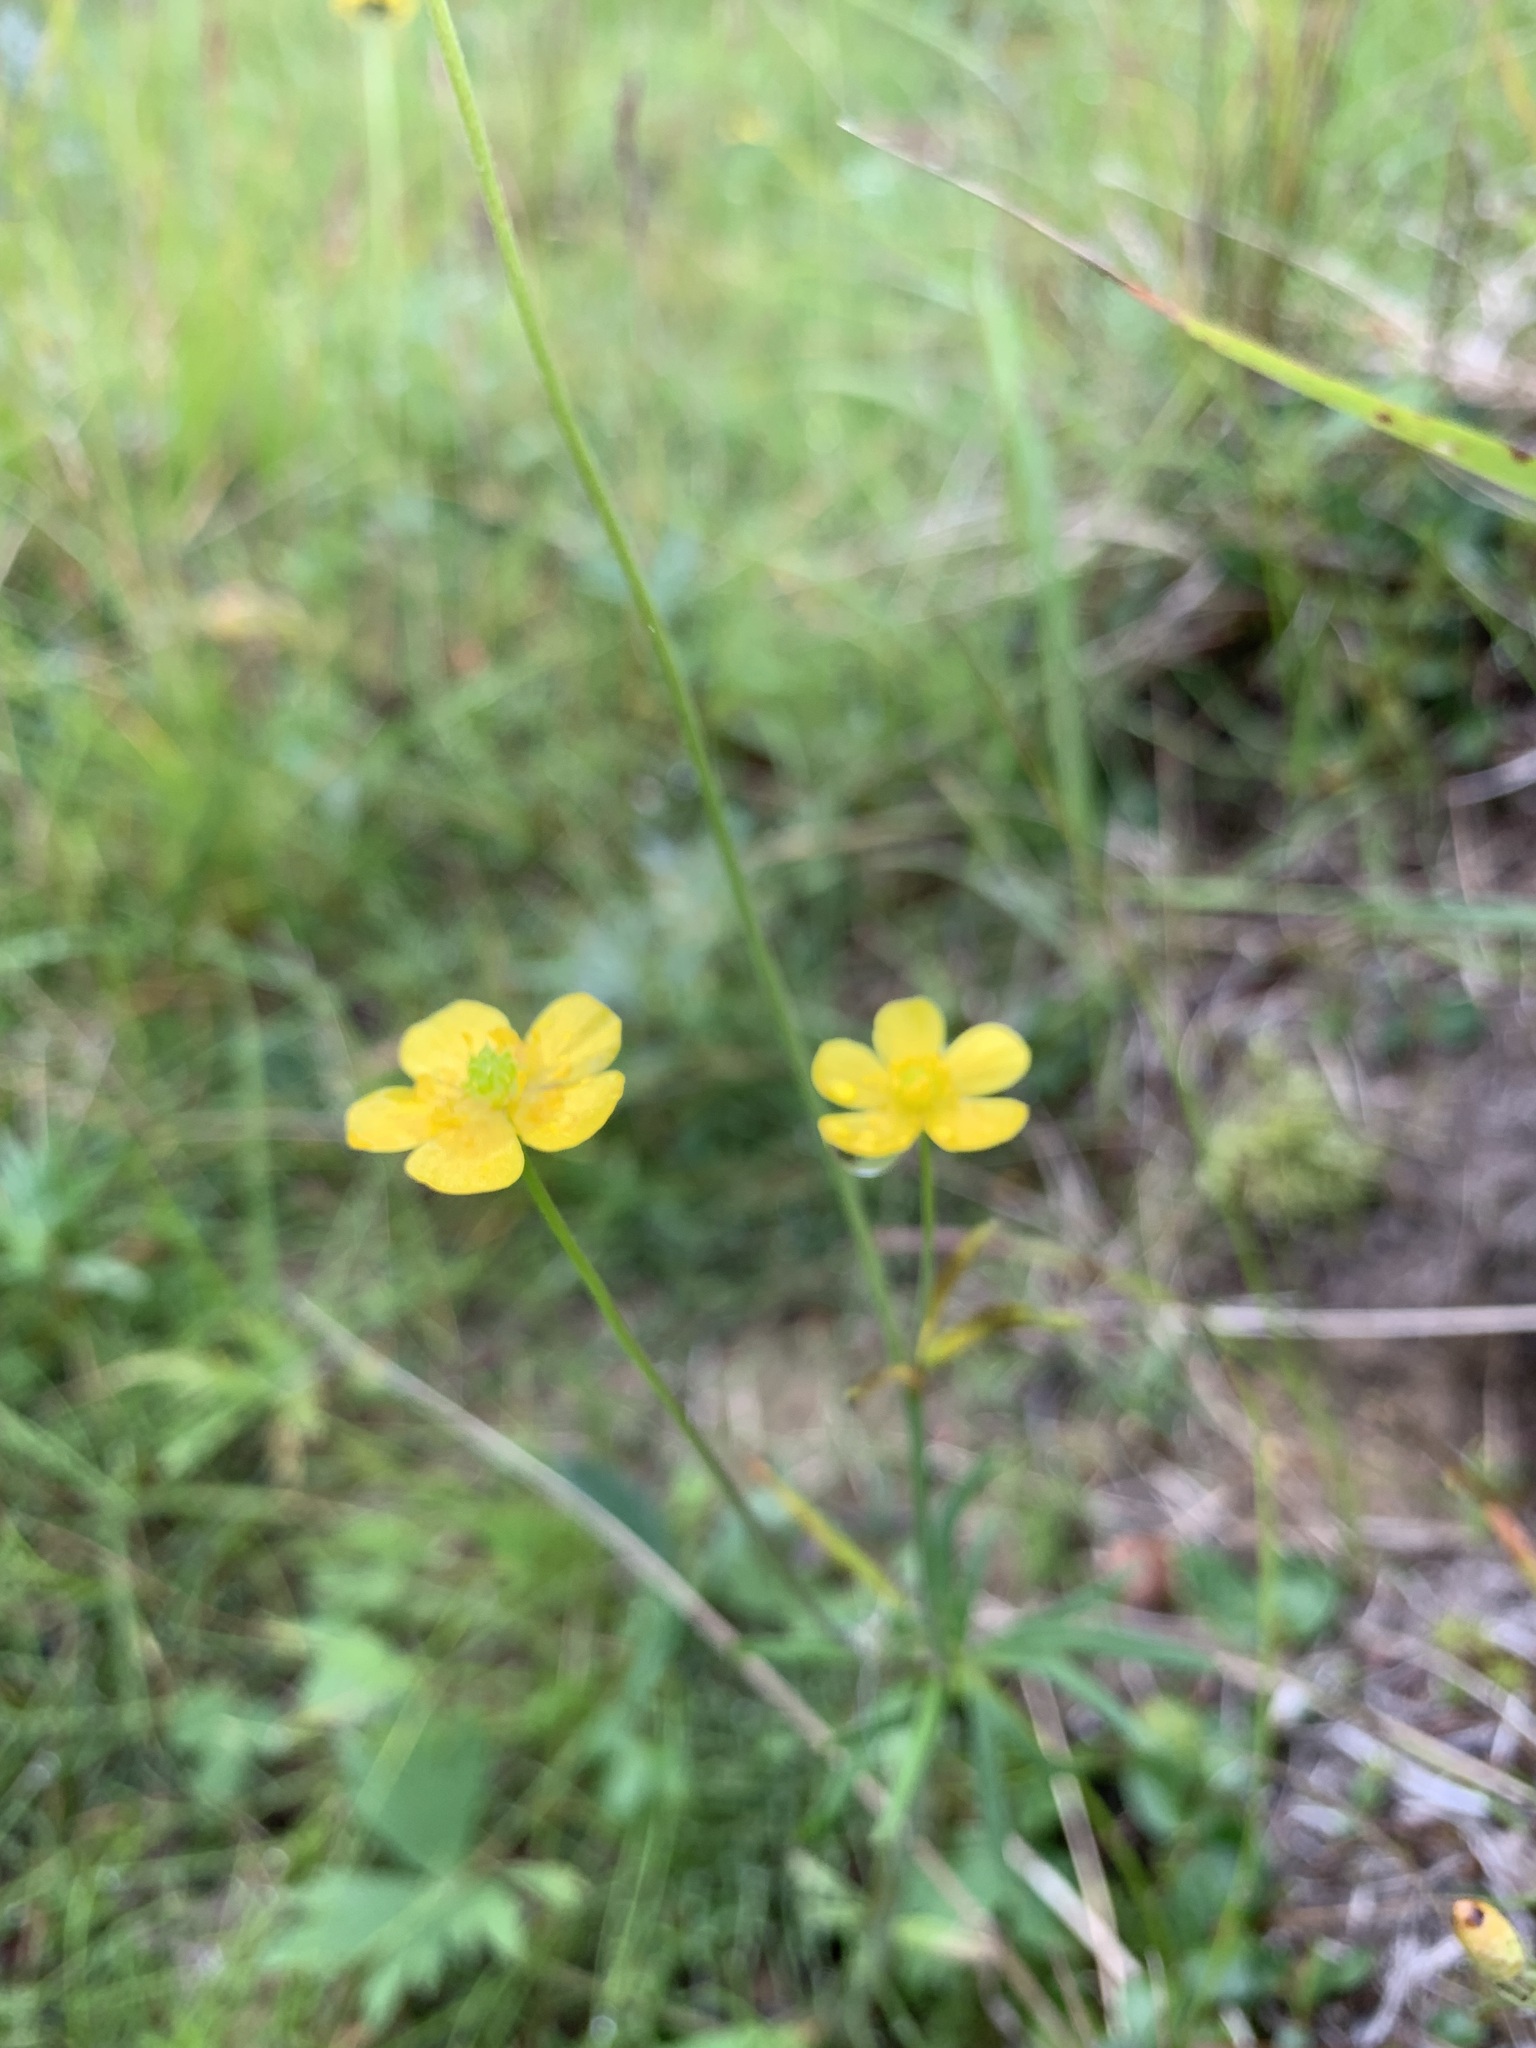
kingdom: Plantae
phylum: Tracheophyta
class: Magnoliopsida
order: Ranunculales
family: Ranunculaceae
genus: Ranunculus
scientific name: Ranunculus propinquus
